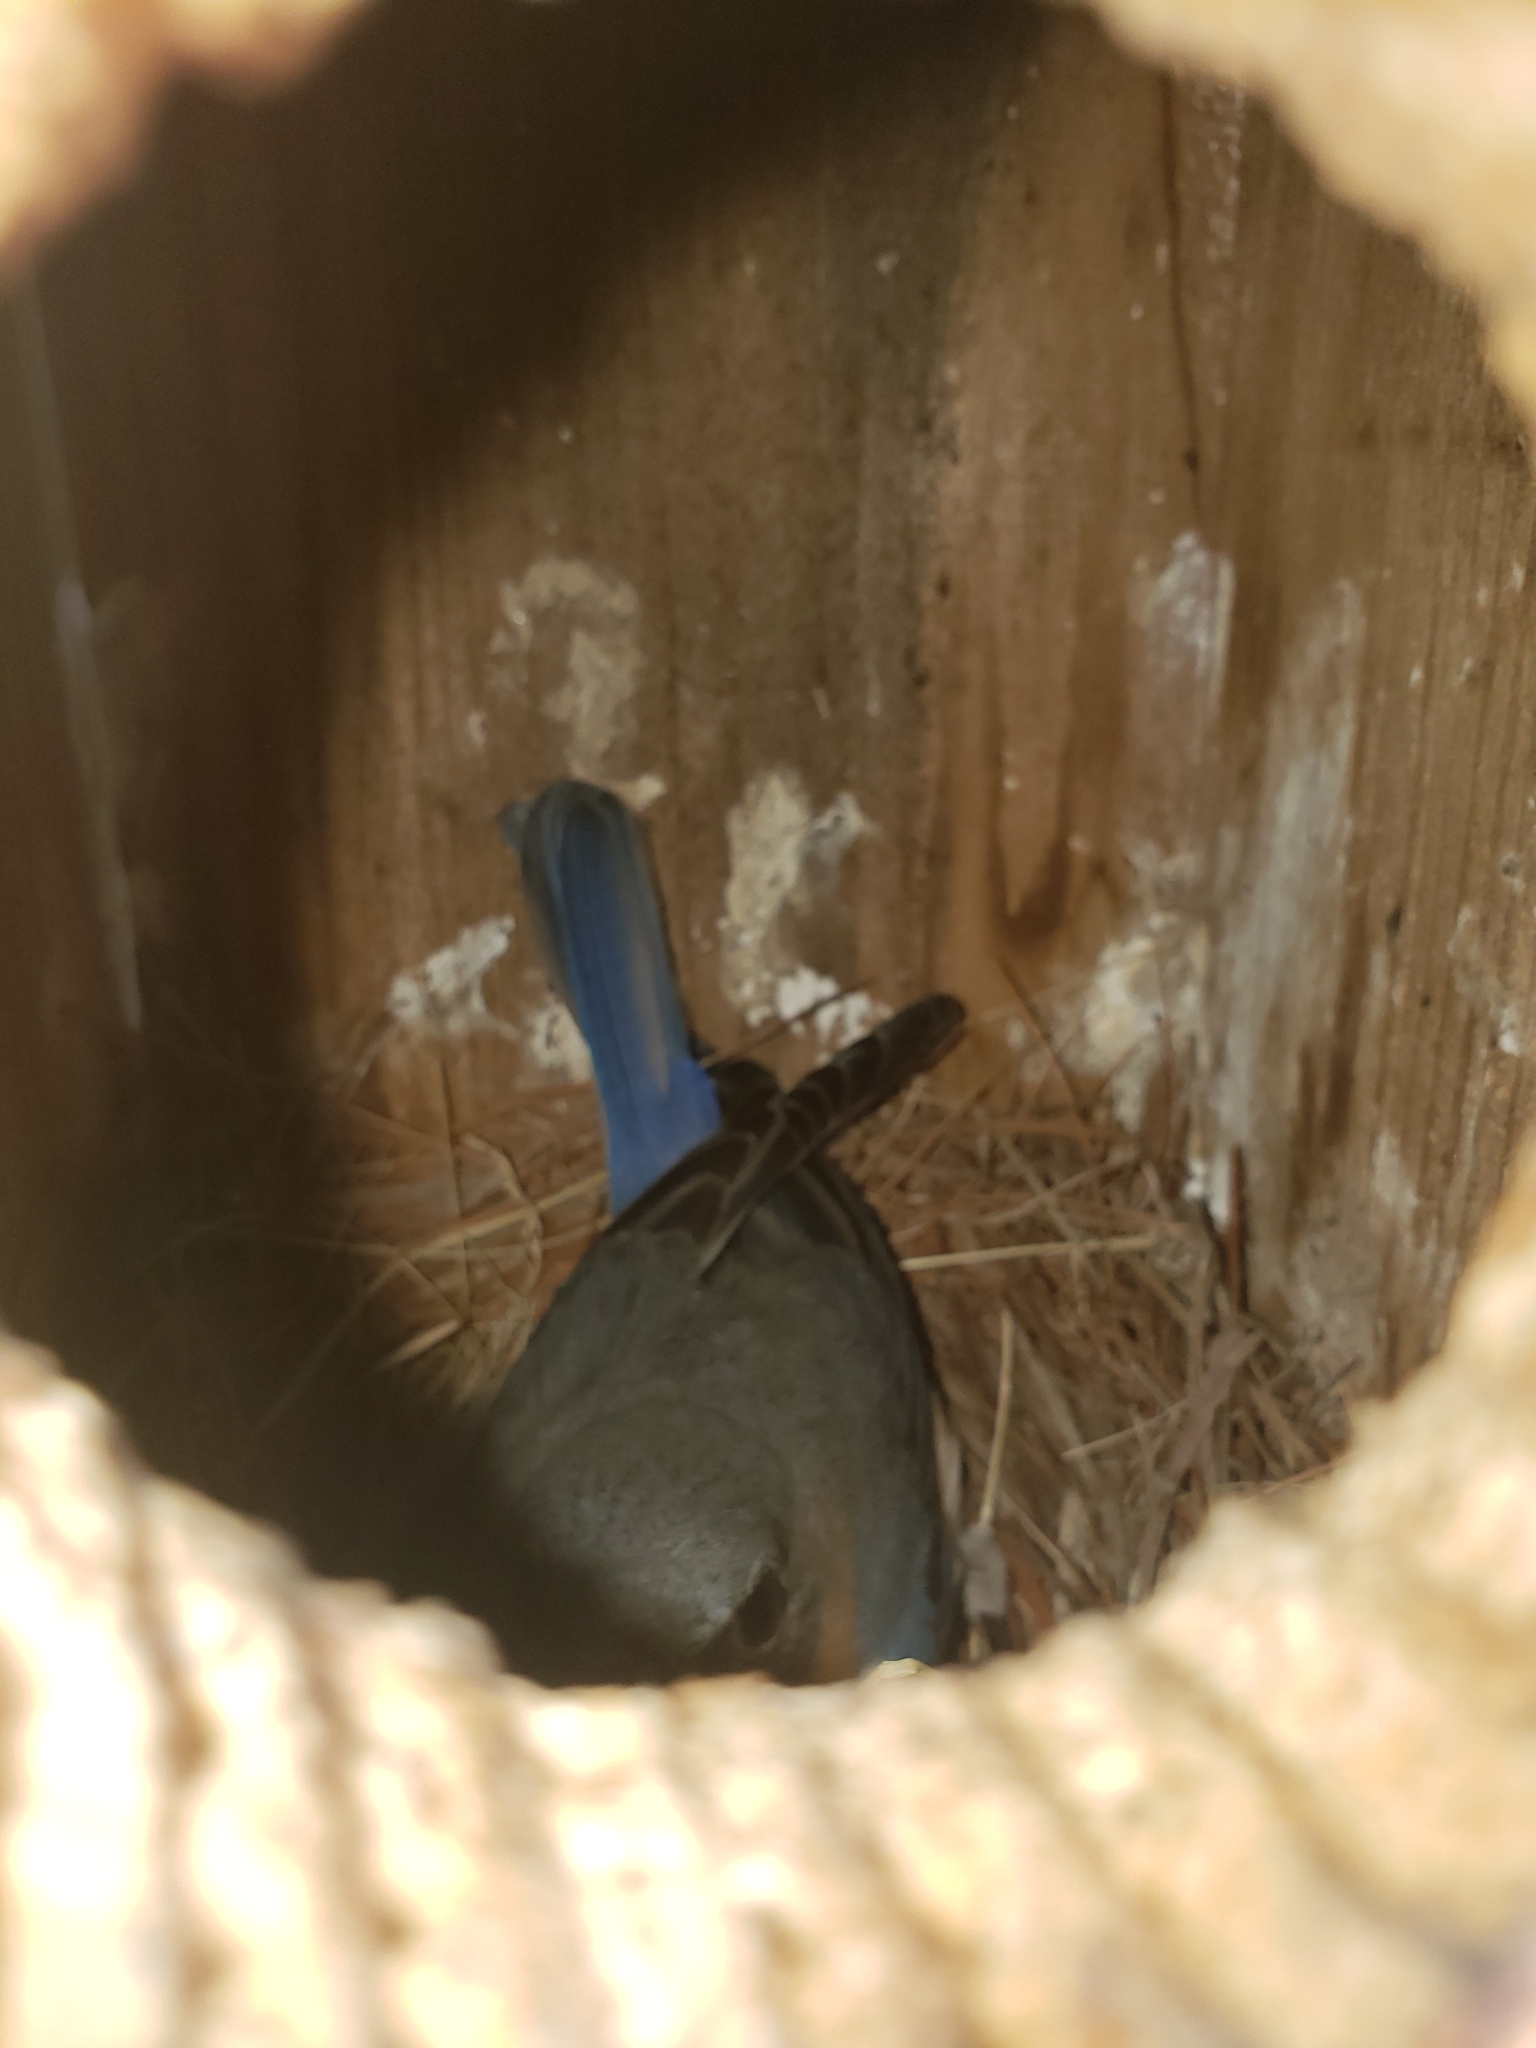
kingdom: Animalia
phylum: Chordata
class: Aves
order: Passeriformes
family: Turdidae
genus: Sialia
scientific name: Sialia sialis
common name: Eastern bluebird
